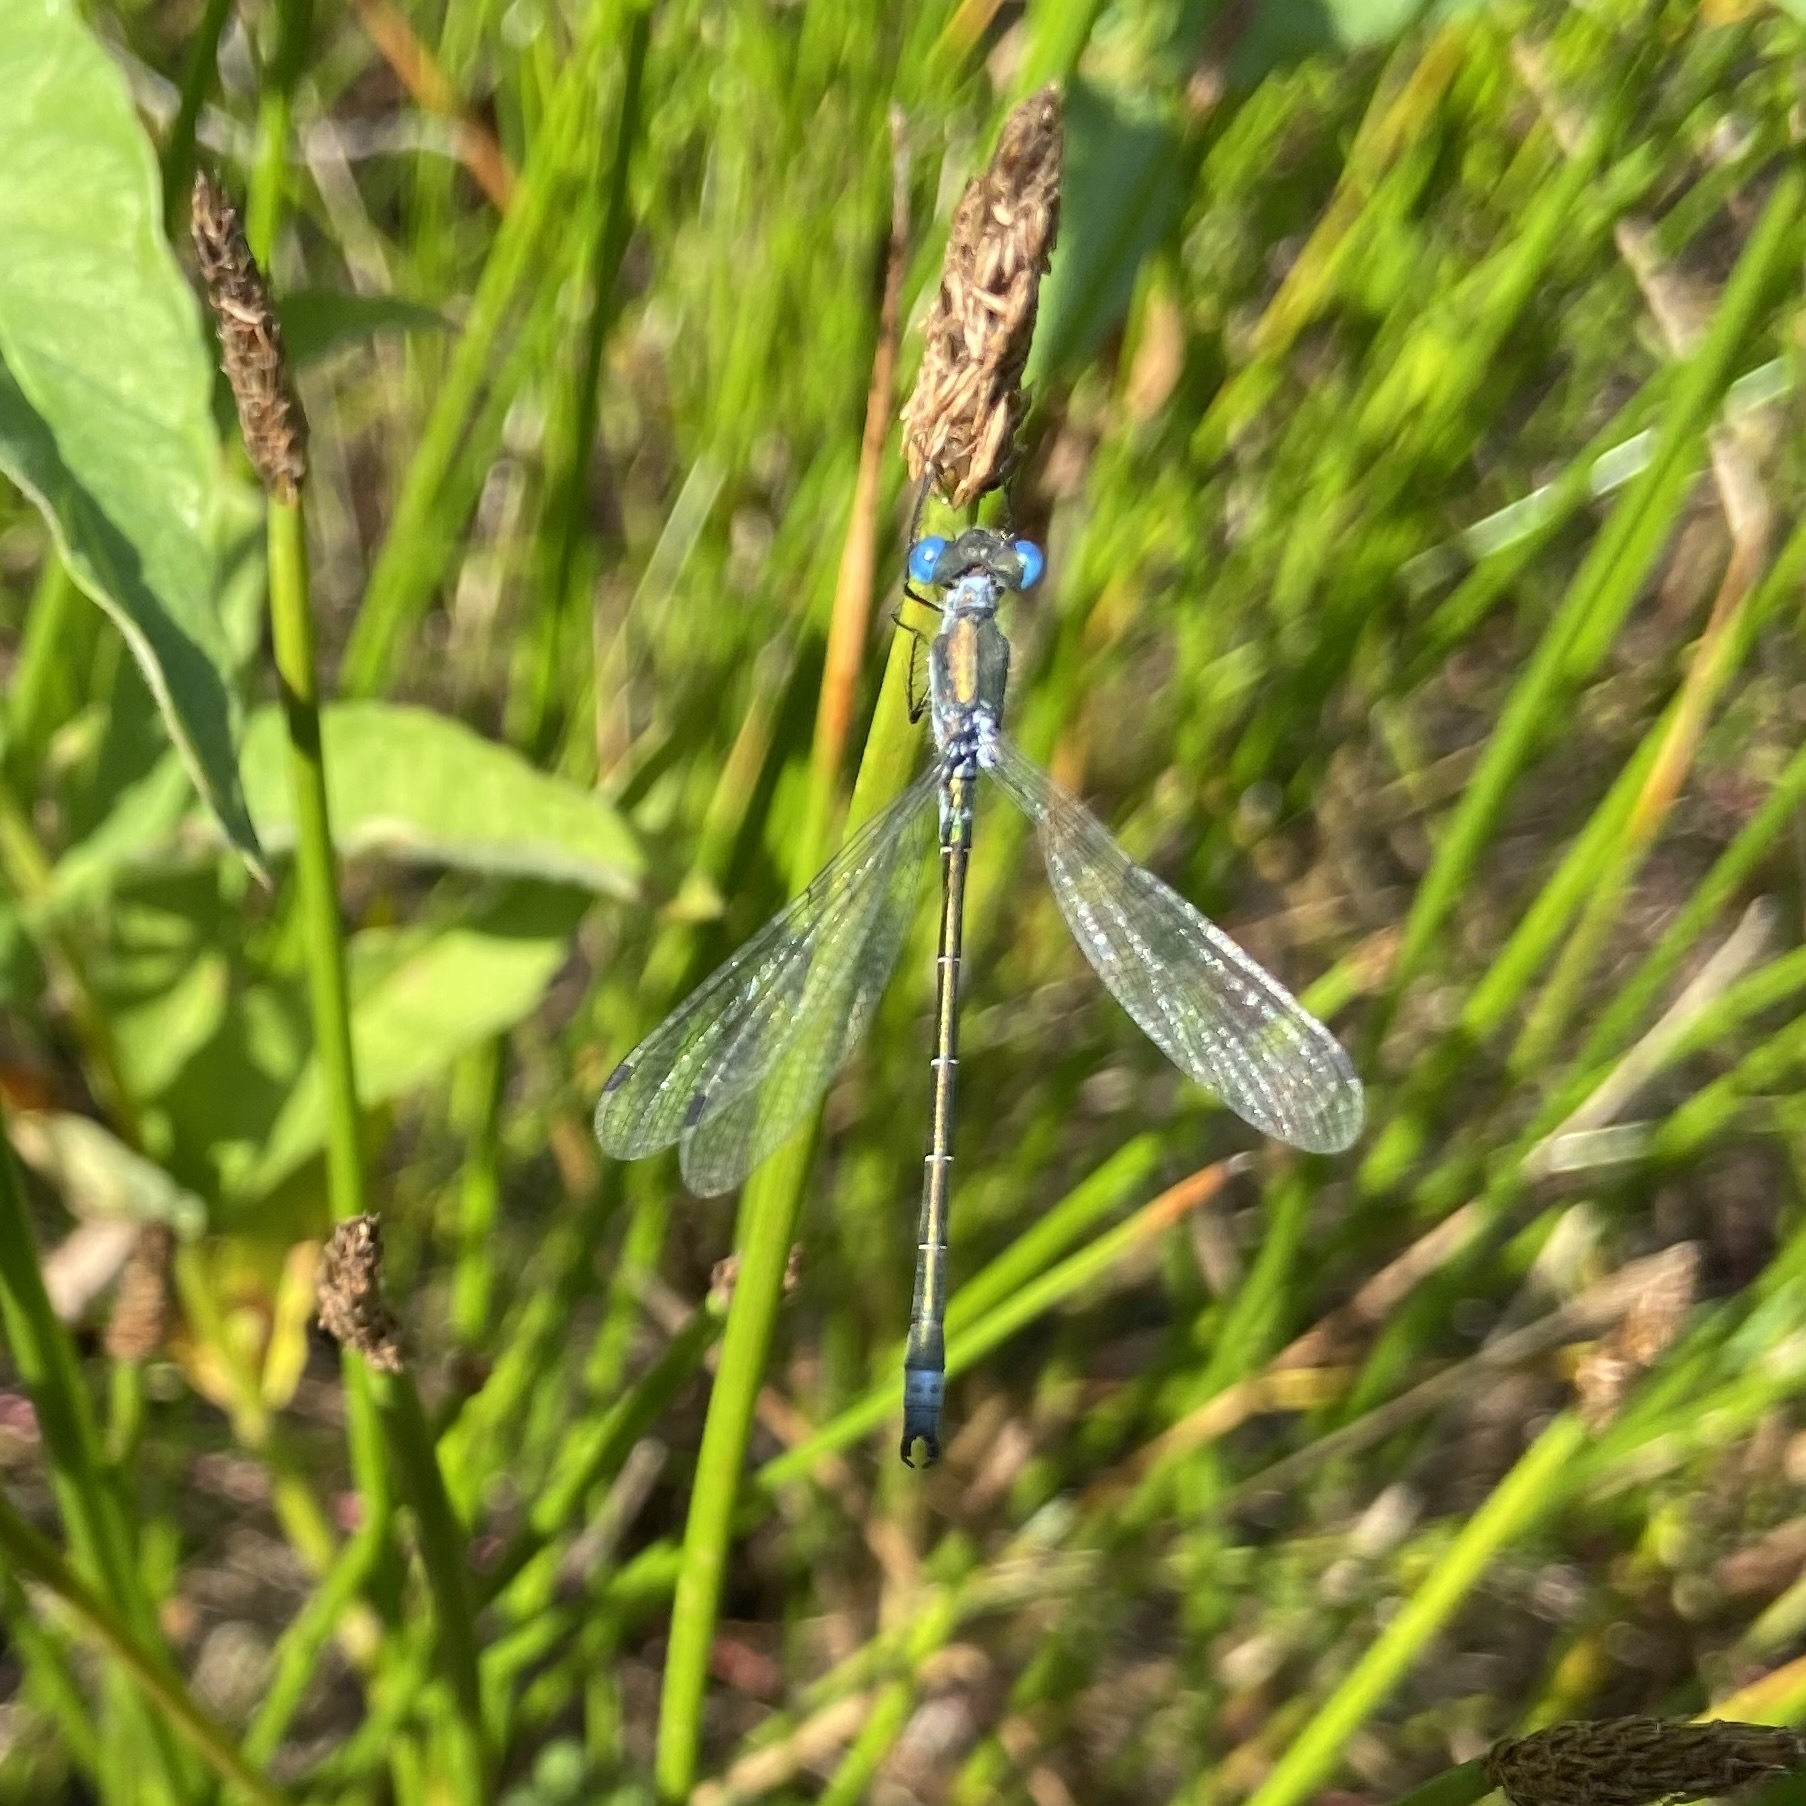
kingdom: Animalia
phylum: Arthropoda
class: Insecta
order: Odonata
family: Lestidae
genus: Lestes
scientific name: Lestes dryas
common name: Scarce emerald damselfly
